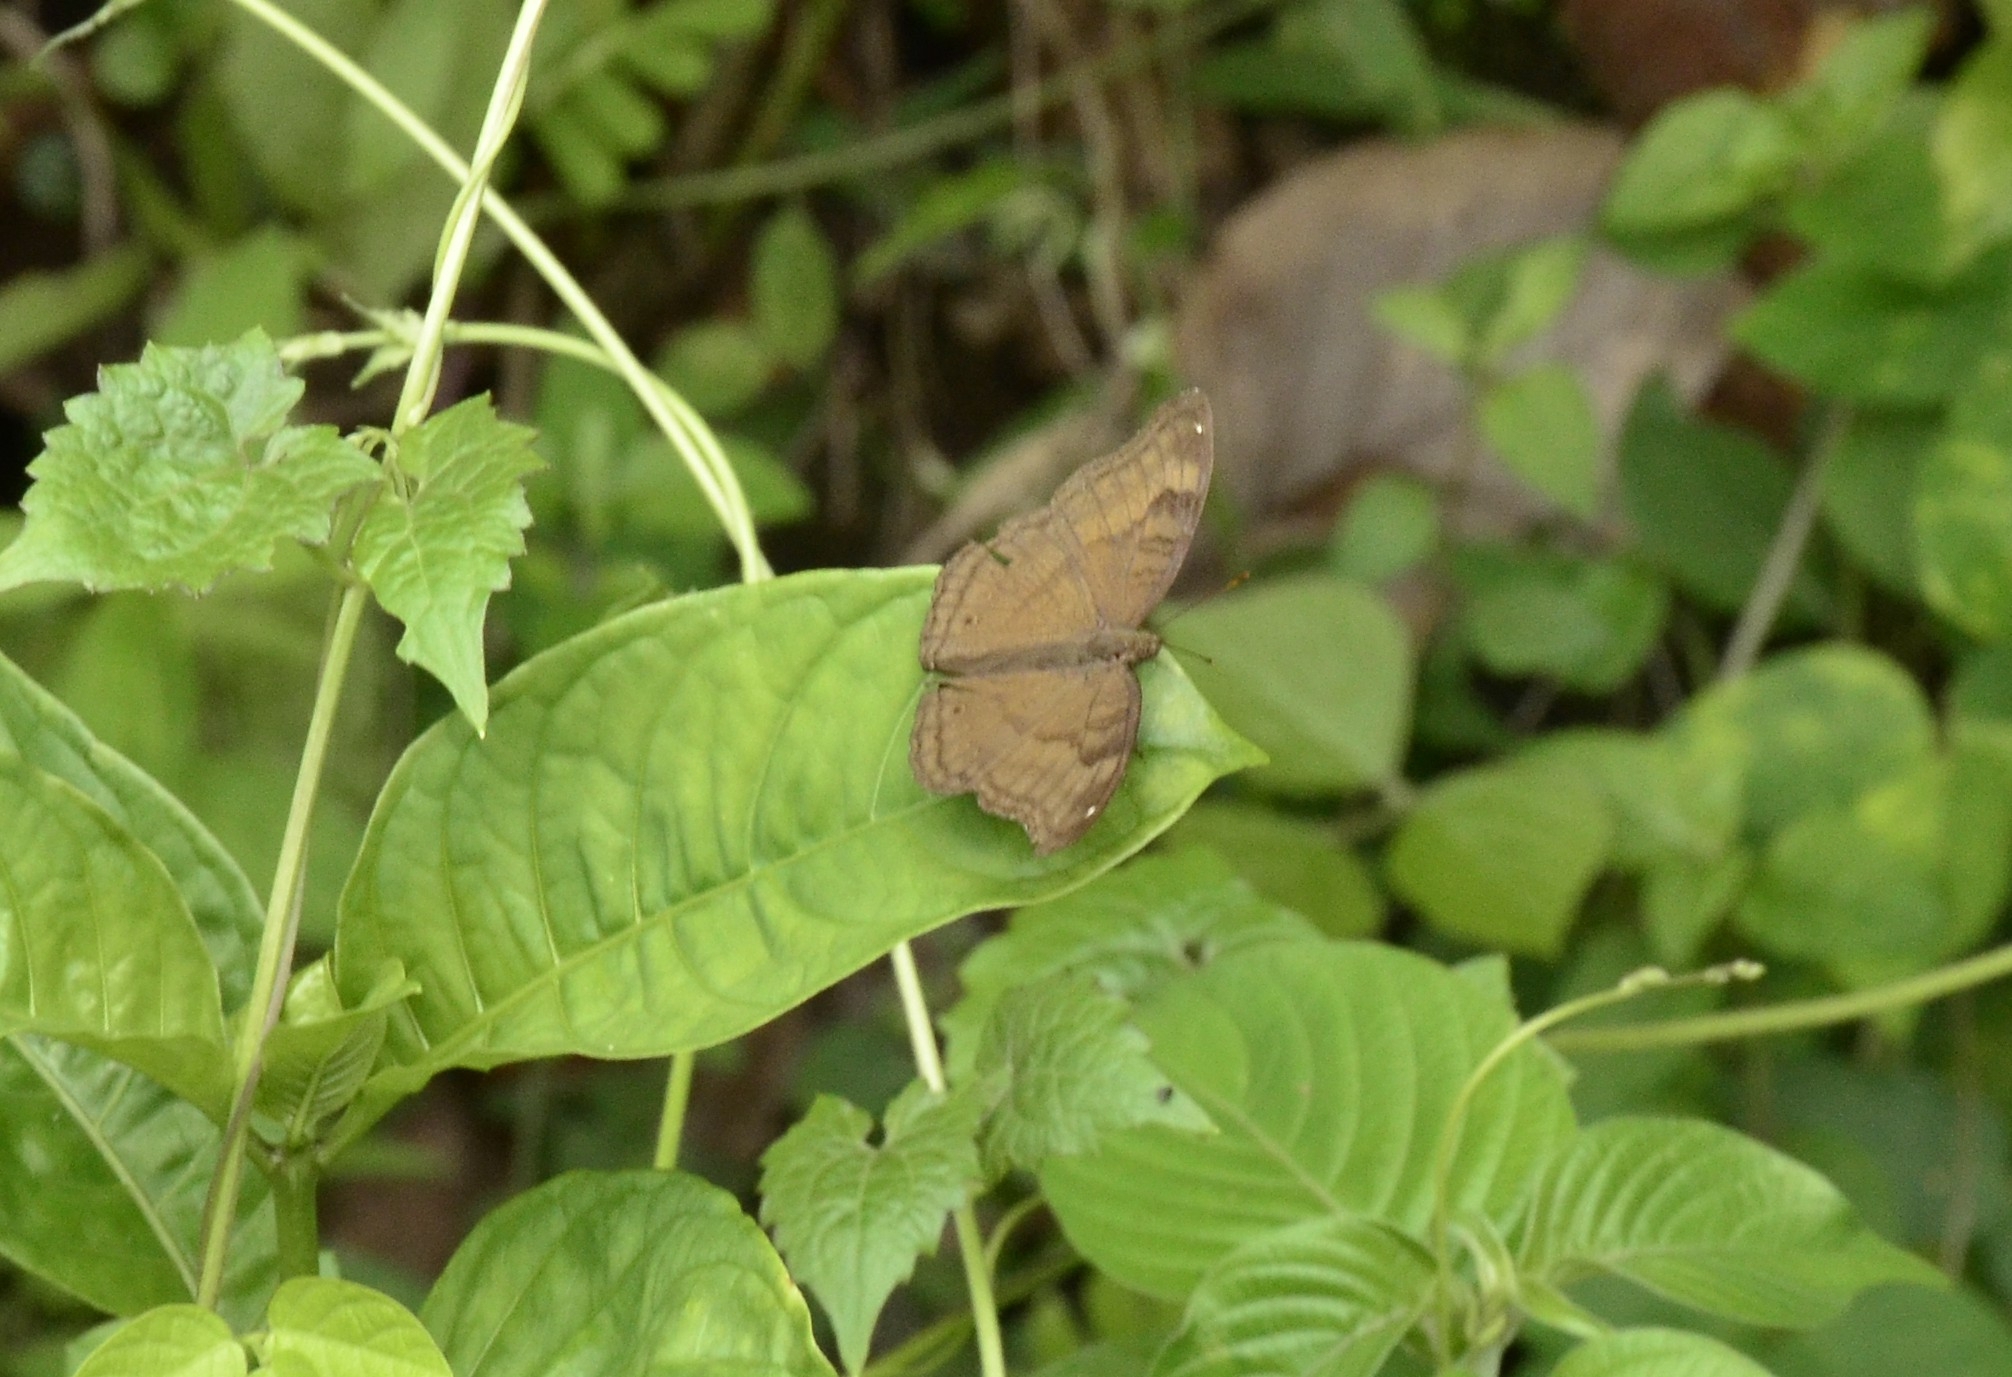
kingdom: Animalia
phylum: Arthropoda
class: Insecta
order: Lepidoptera
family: Nymphalidae
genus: Junonia
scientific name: Junonia iphita
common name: Chocolate pansy
